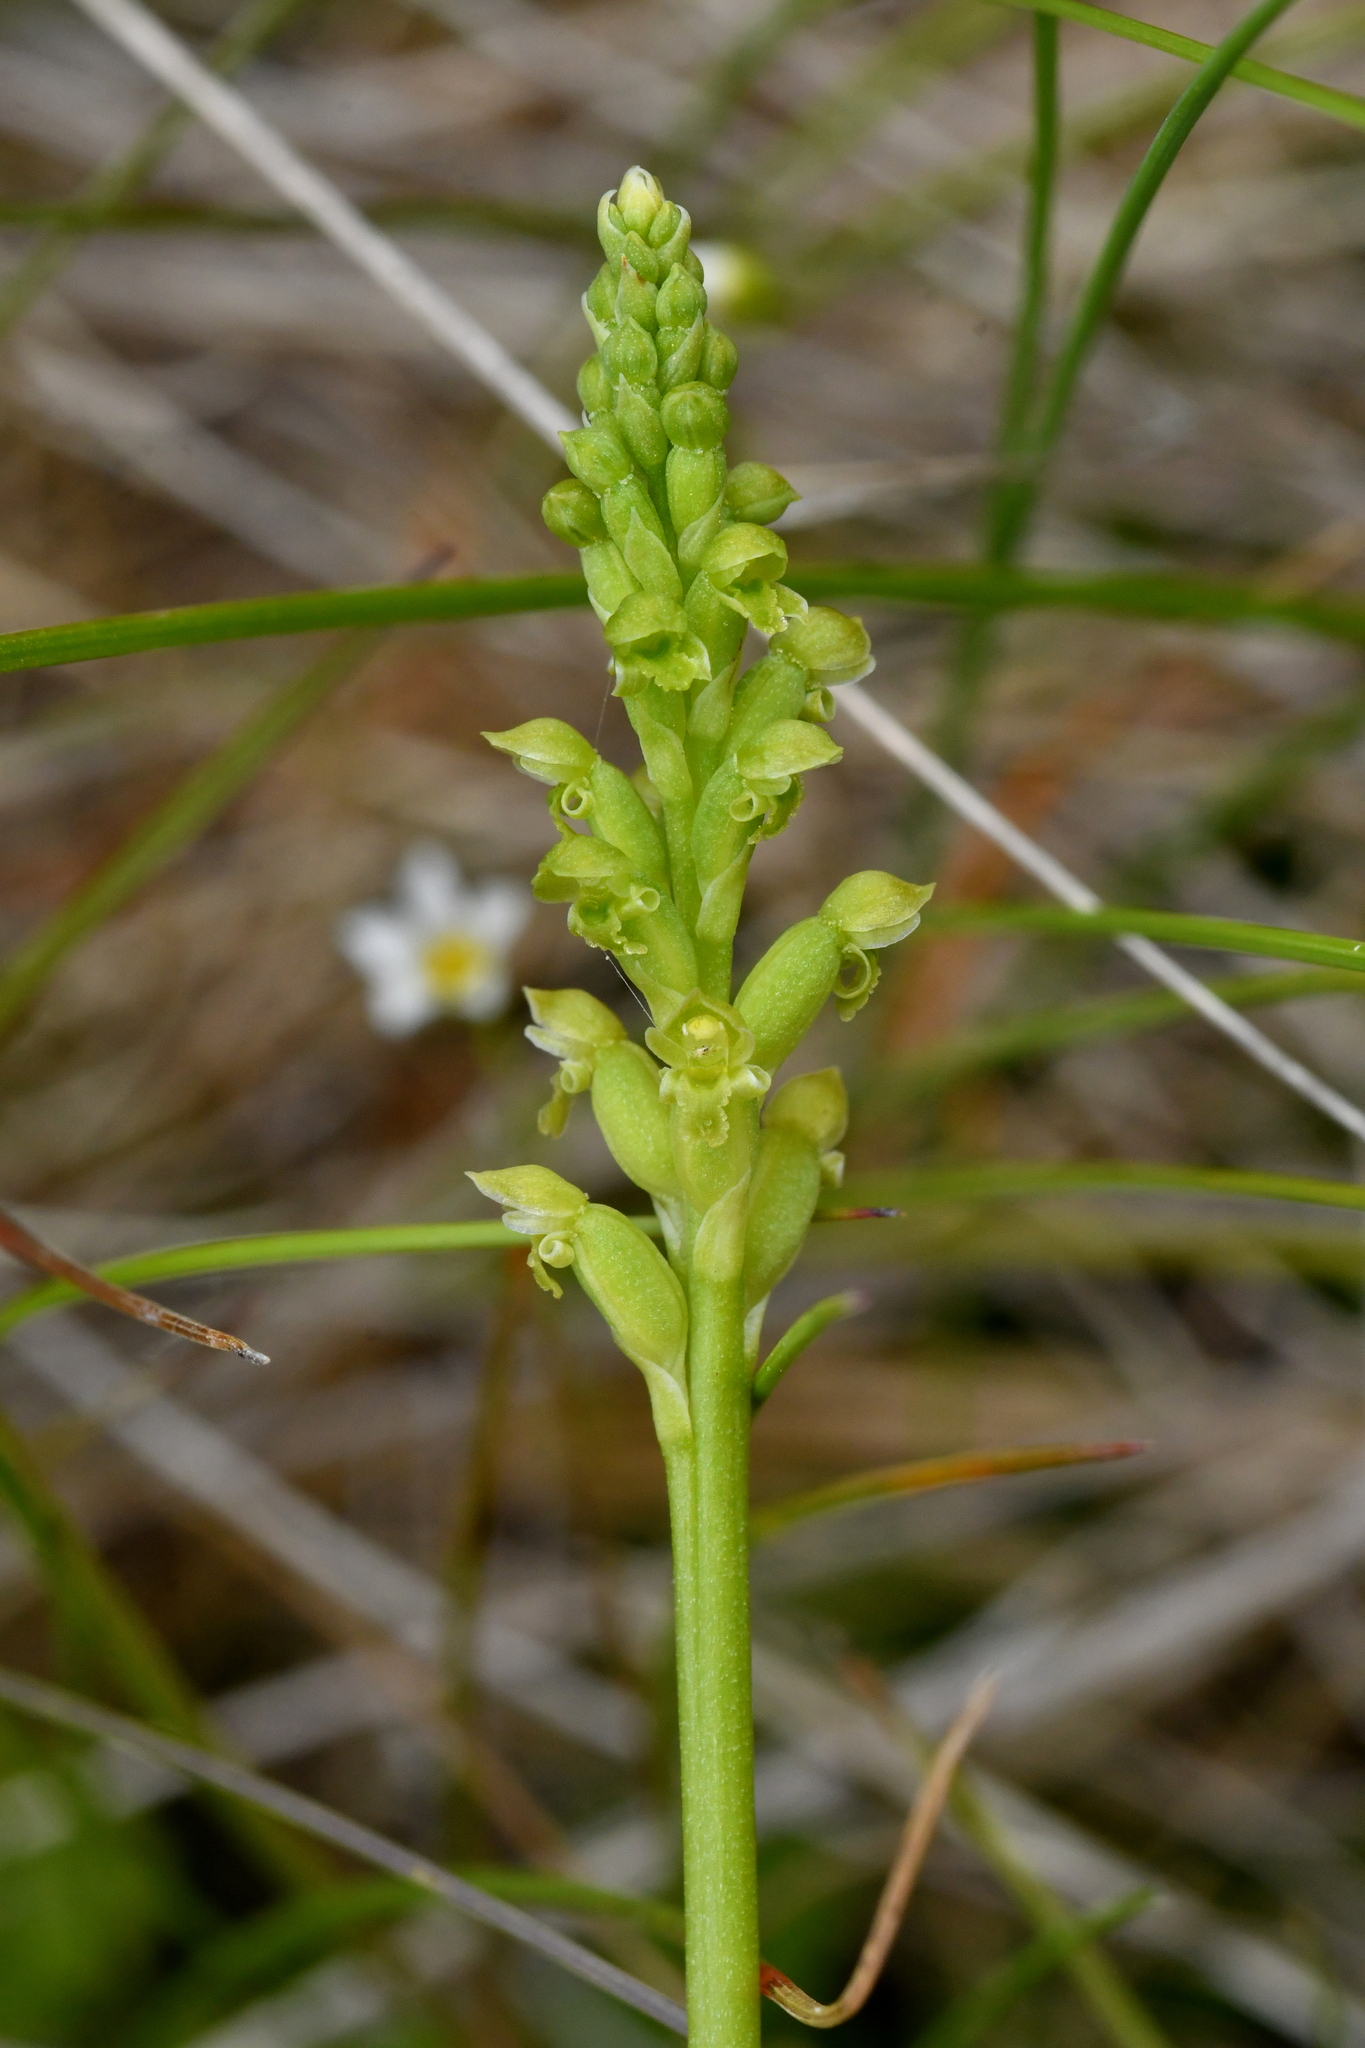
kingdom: Plantae
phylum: Tracheophyta
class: Liliopsida
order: Asparagales
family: Orchidaceae
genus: Microtis
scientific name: Microtis unifolia
